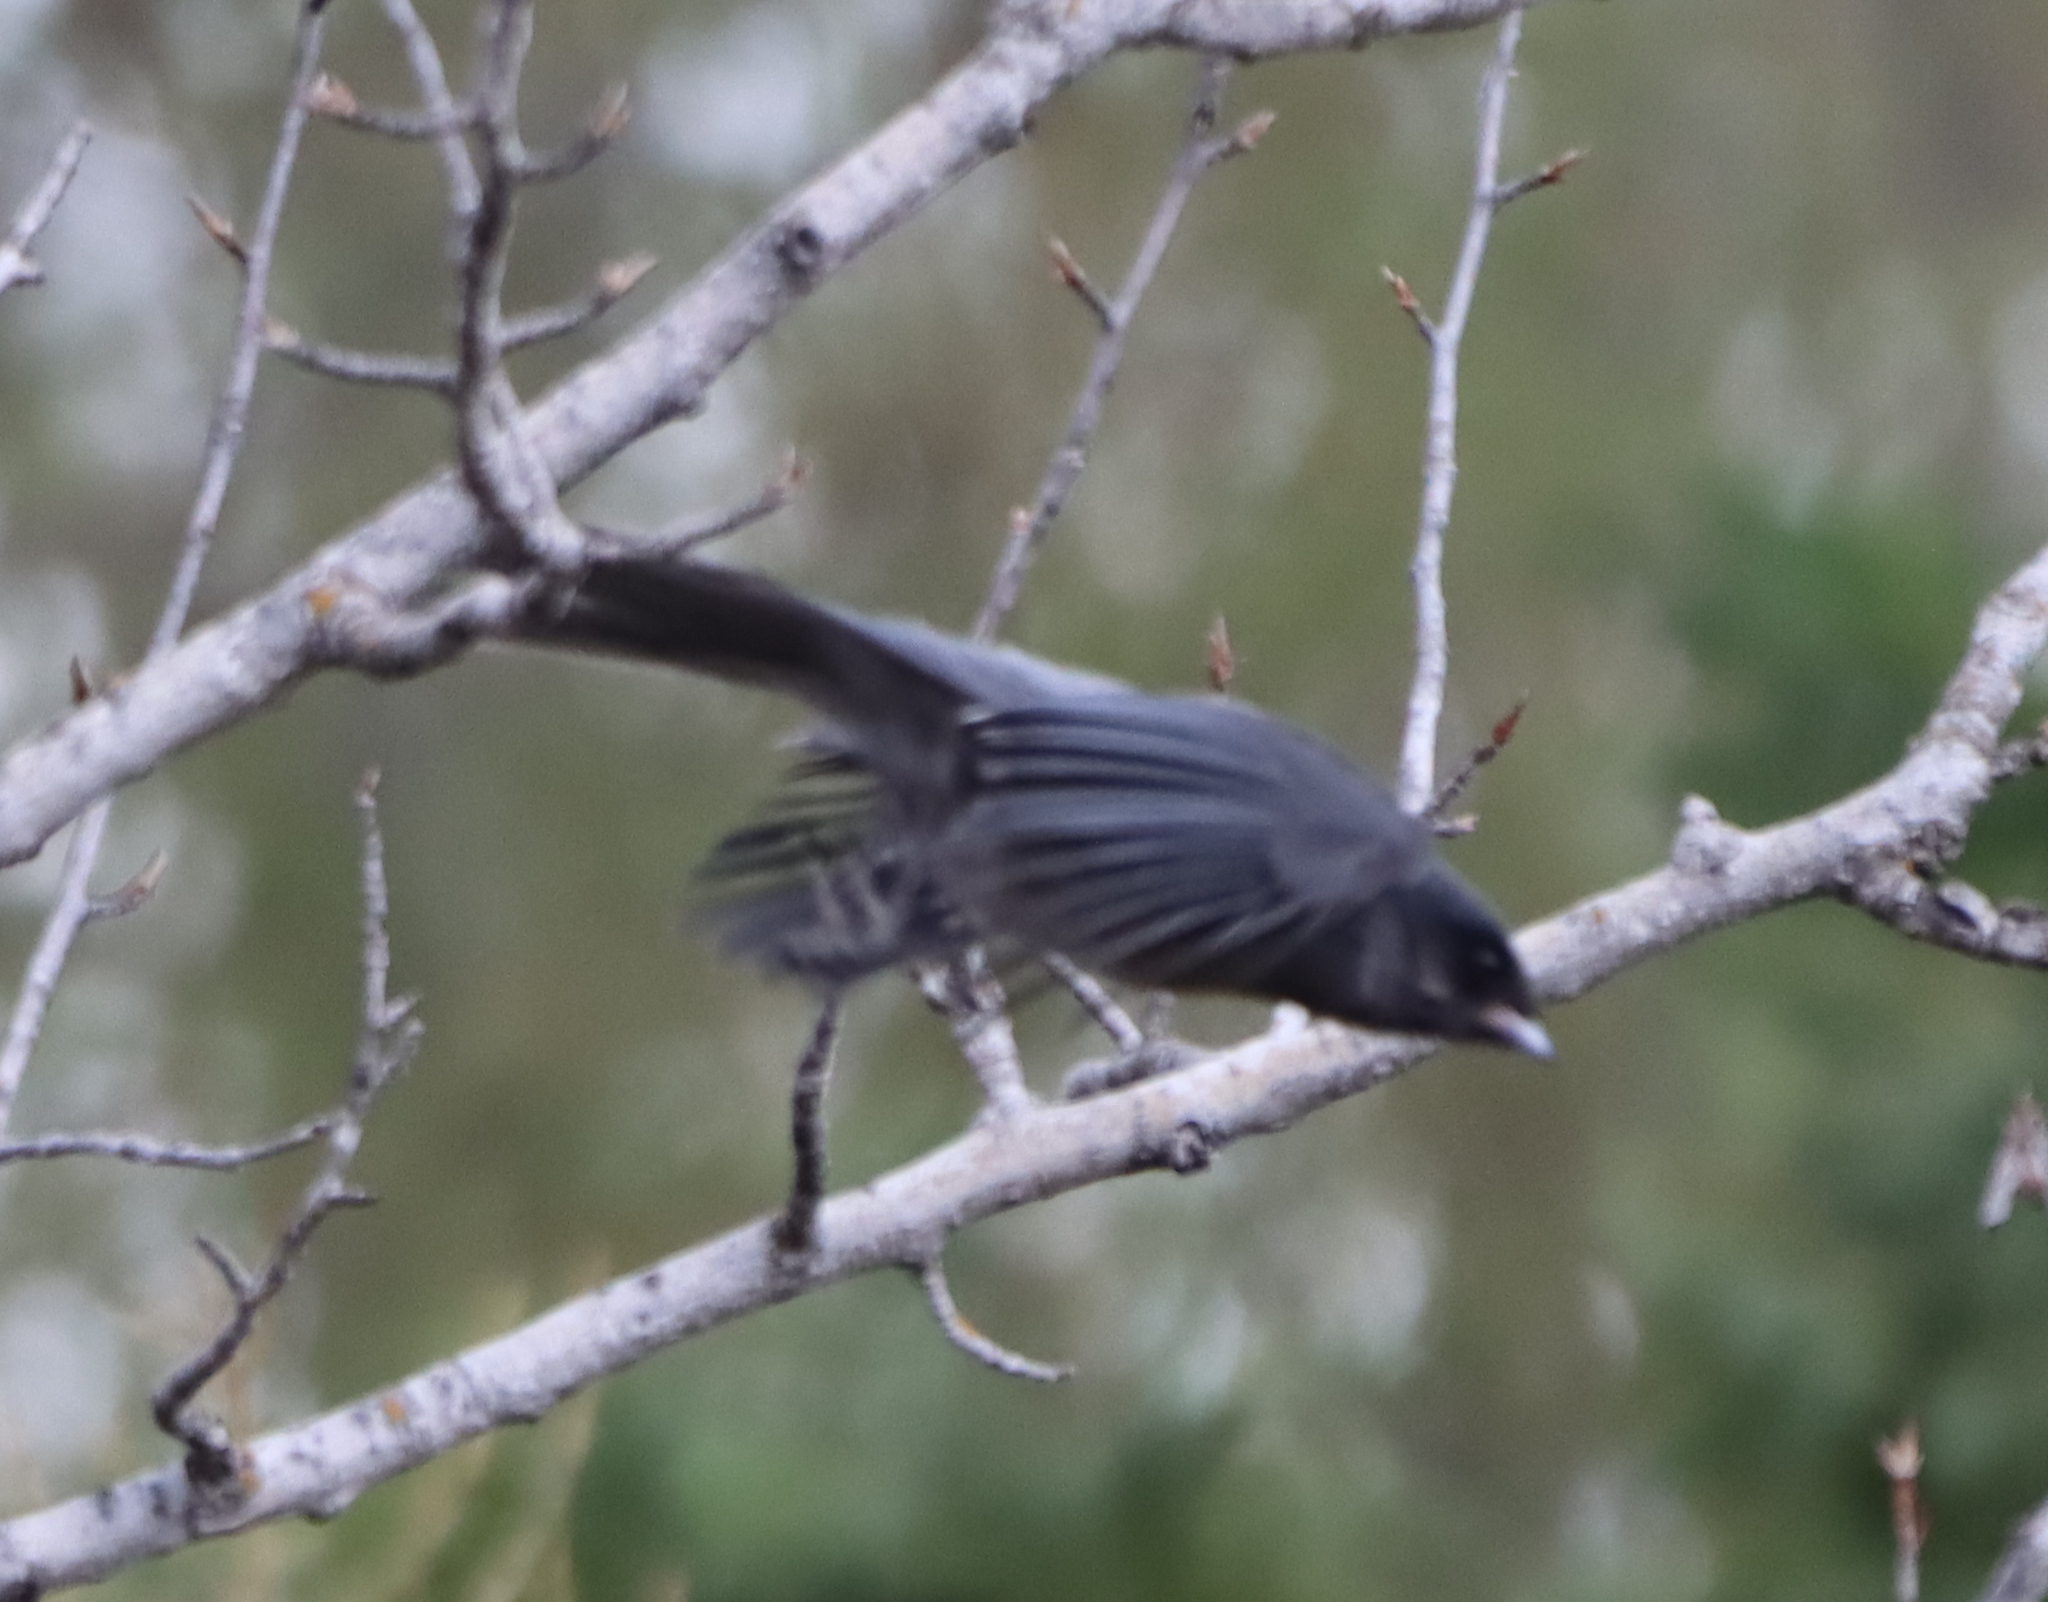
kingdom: Animalia
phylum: Chordata
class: Aves
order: Passeriformes
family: Corvidae
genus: Perisoreus
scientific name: Perisoreus canadensis
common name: Gray jay
